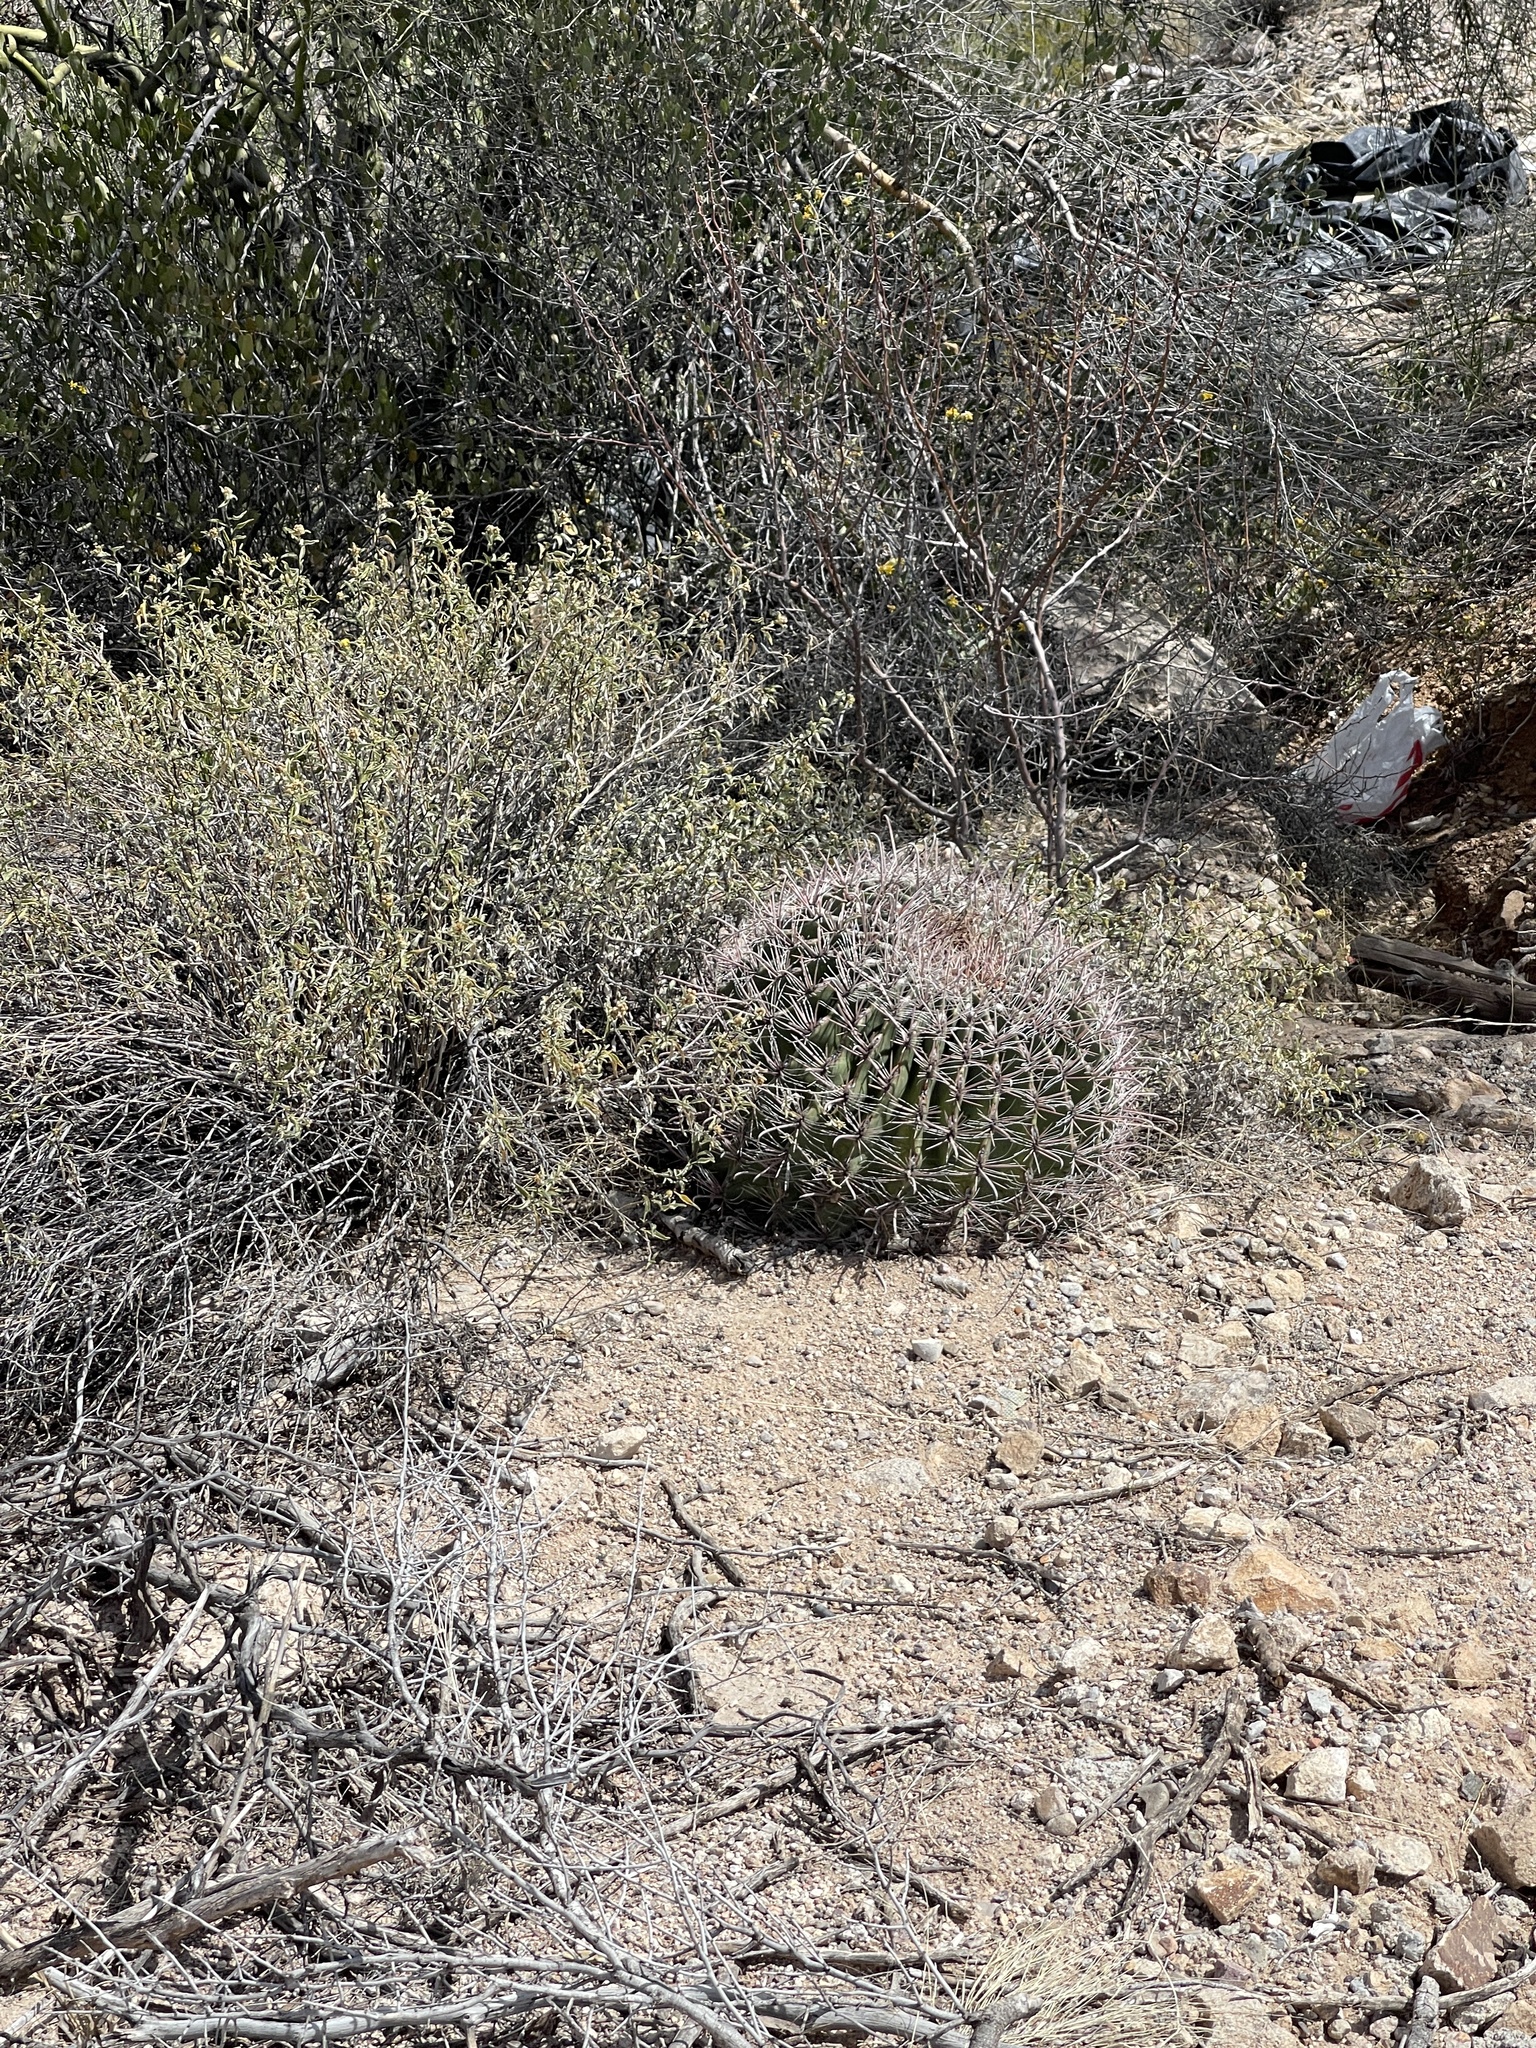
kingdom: Plantae
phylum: Tracheophyta
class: Magnoliopsida
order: Caryophyllales
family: Cactaceae
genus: Ferocactus
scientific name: Ferocactus wislizeni
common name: Candy barrel cactus
